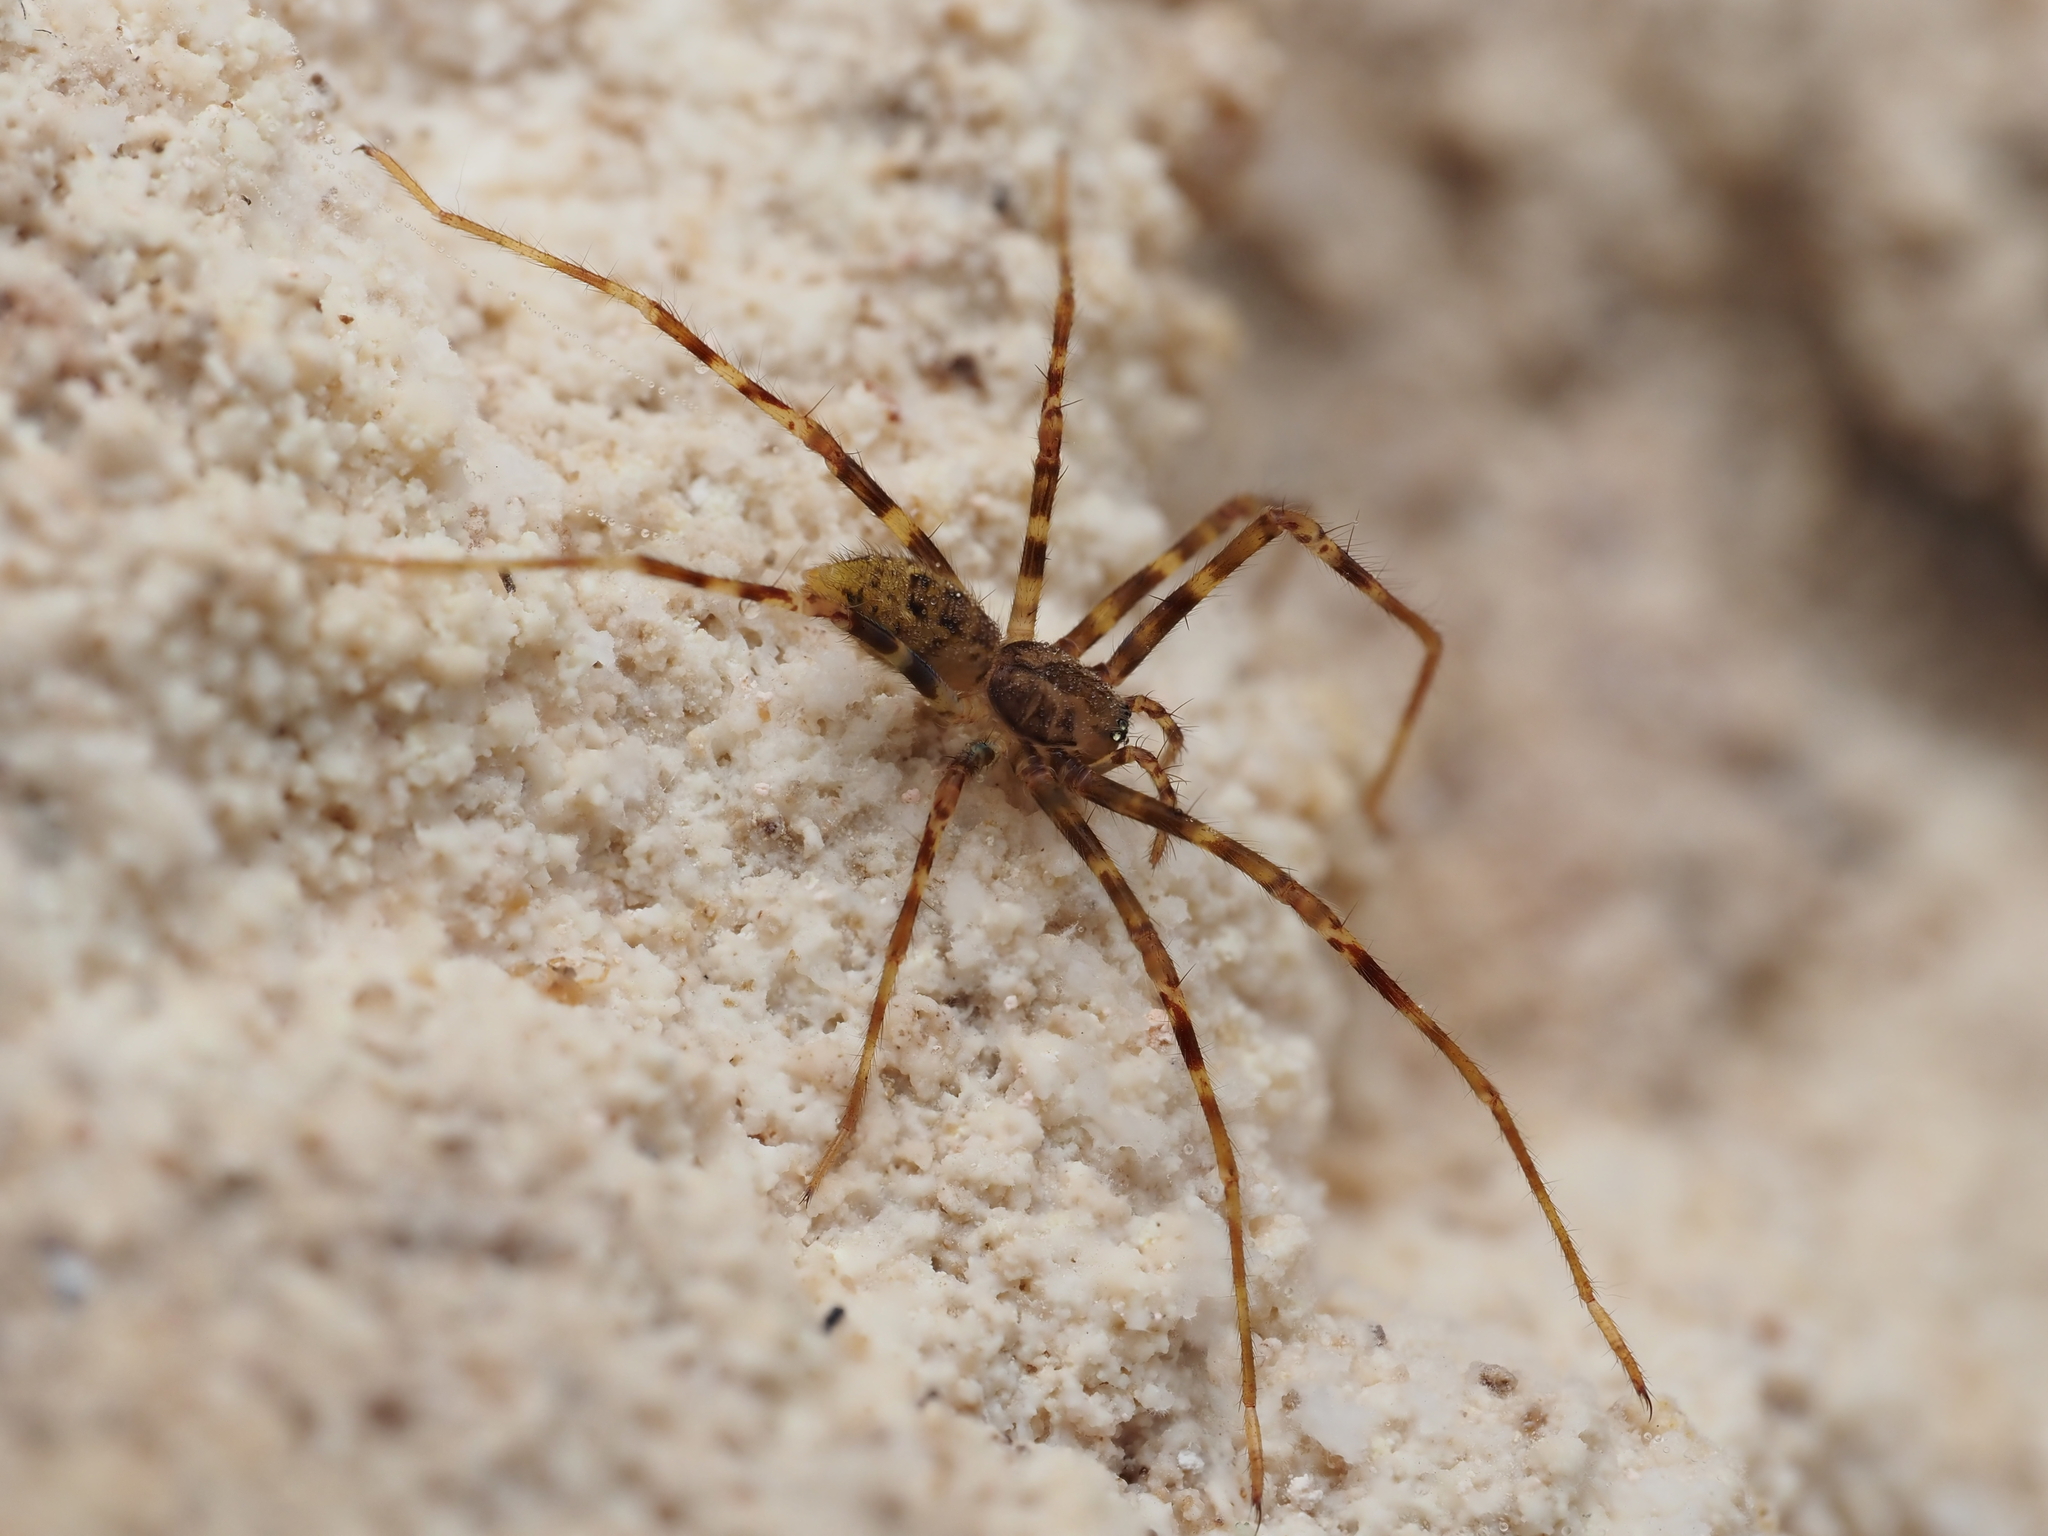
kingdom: Animalia
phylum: Arthropoda
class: Arachnida
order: Araneae
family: Gradungulidae
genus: Spelungula
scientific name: Spelungula cavernicola
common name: Nelson cave spider
